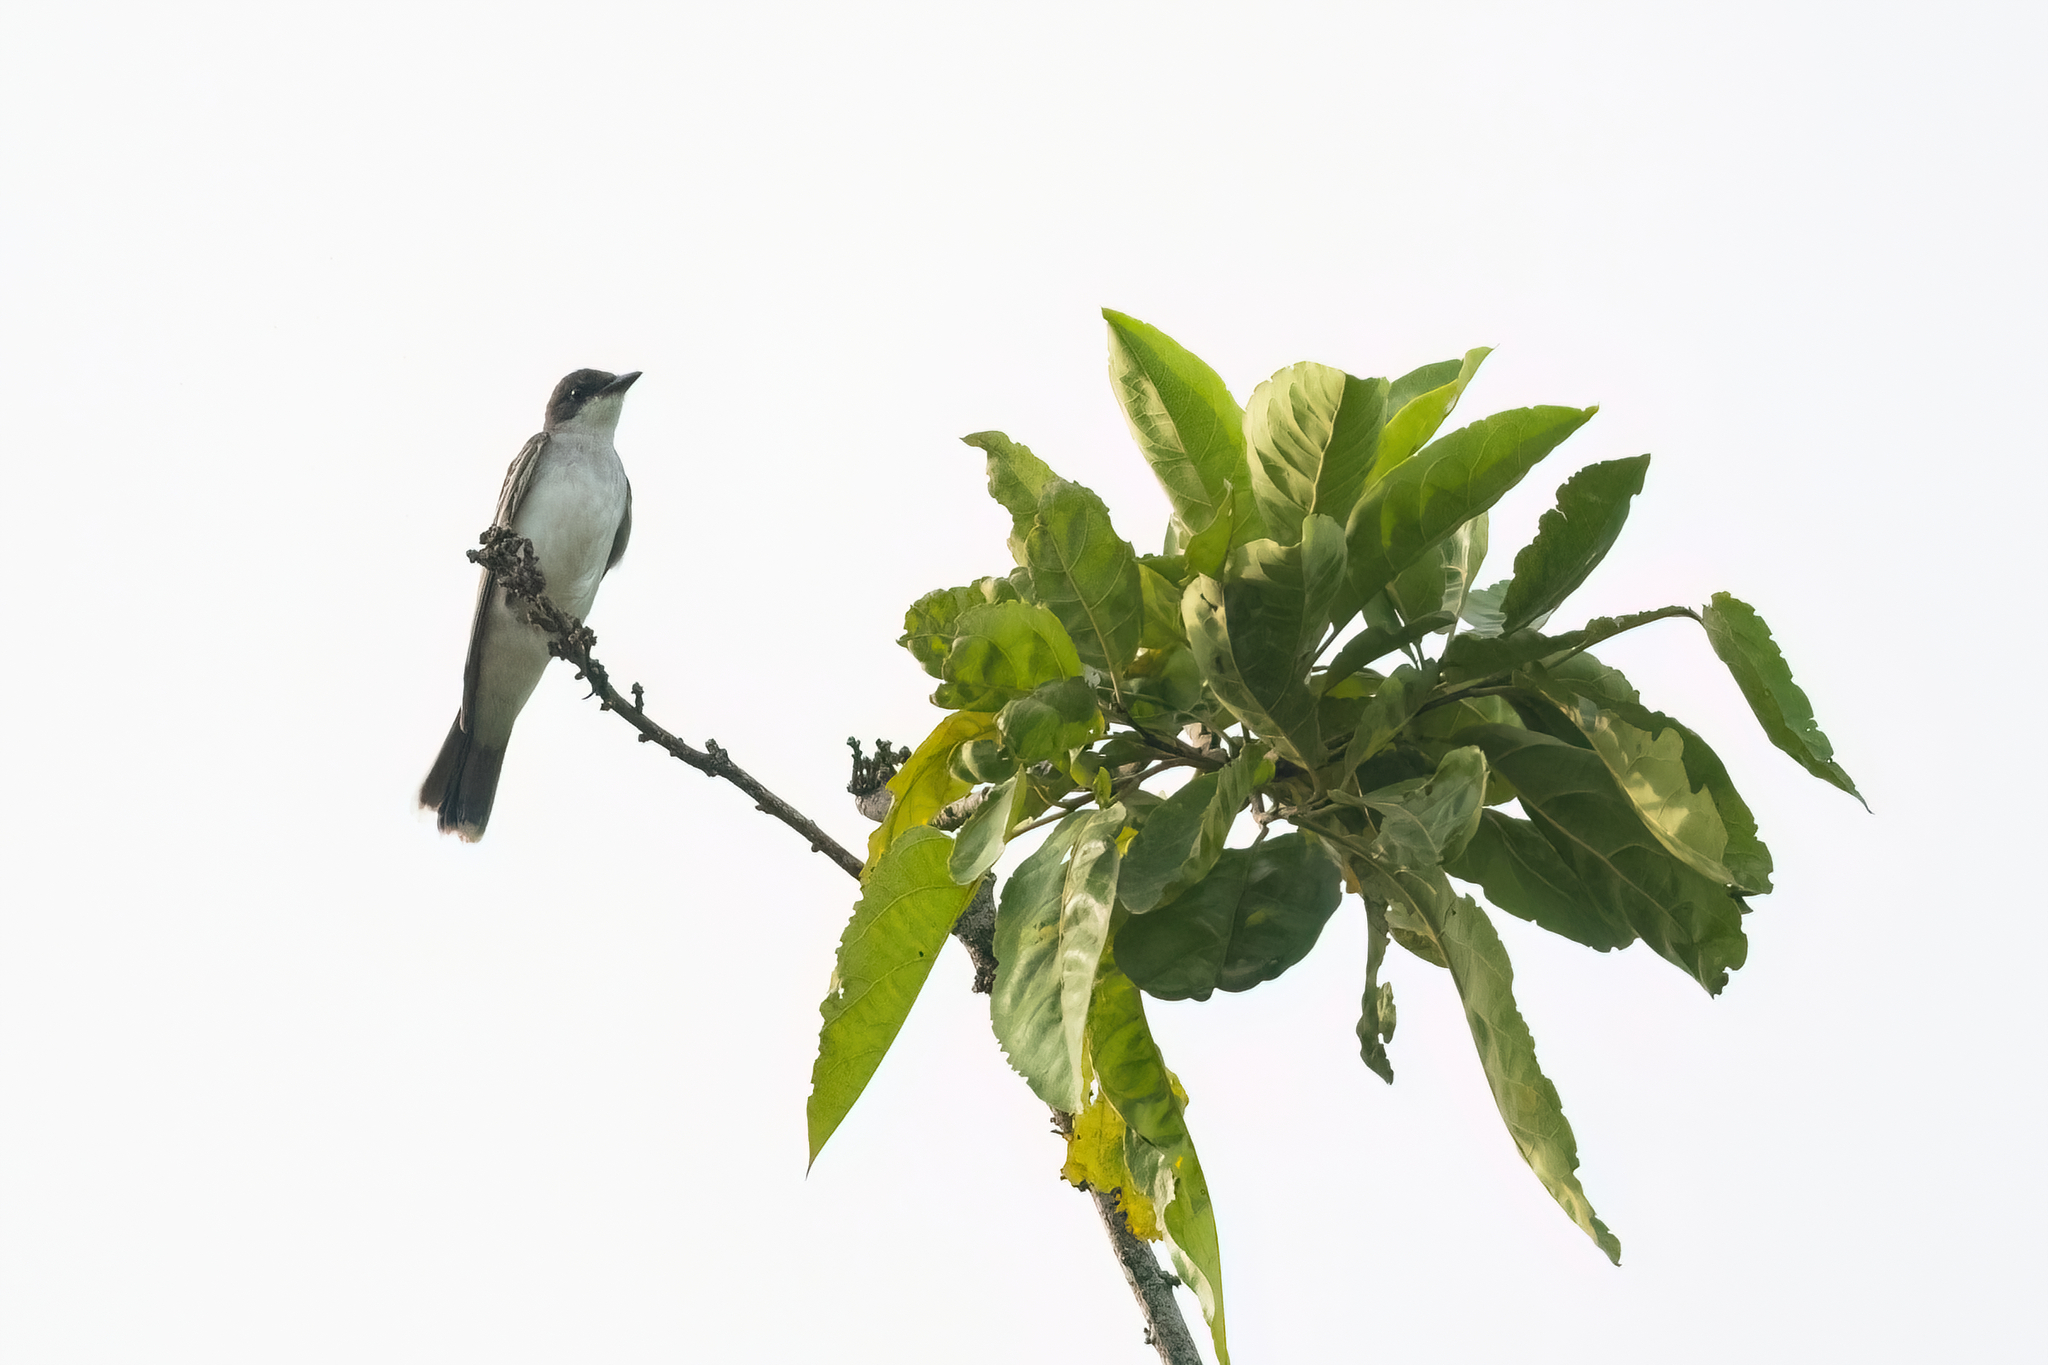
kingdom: Animalia
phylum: Chordata
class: Aves
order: Passeriformes
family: Tyrannidae
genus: Tyrannus
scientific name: Tyrannus tyrannus
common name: Eastern kingbird
